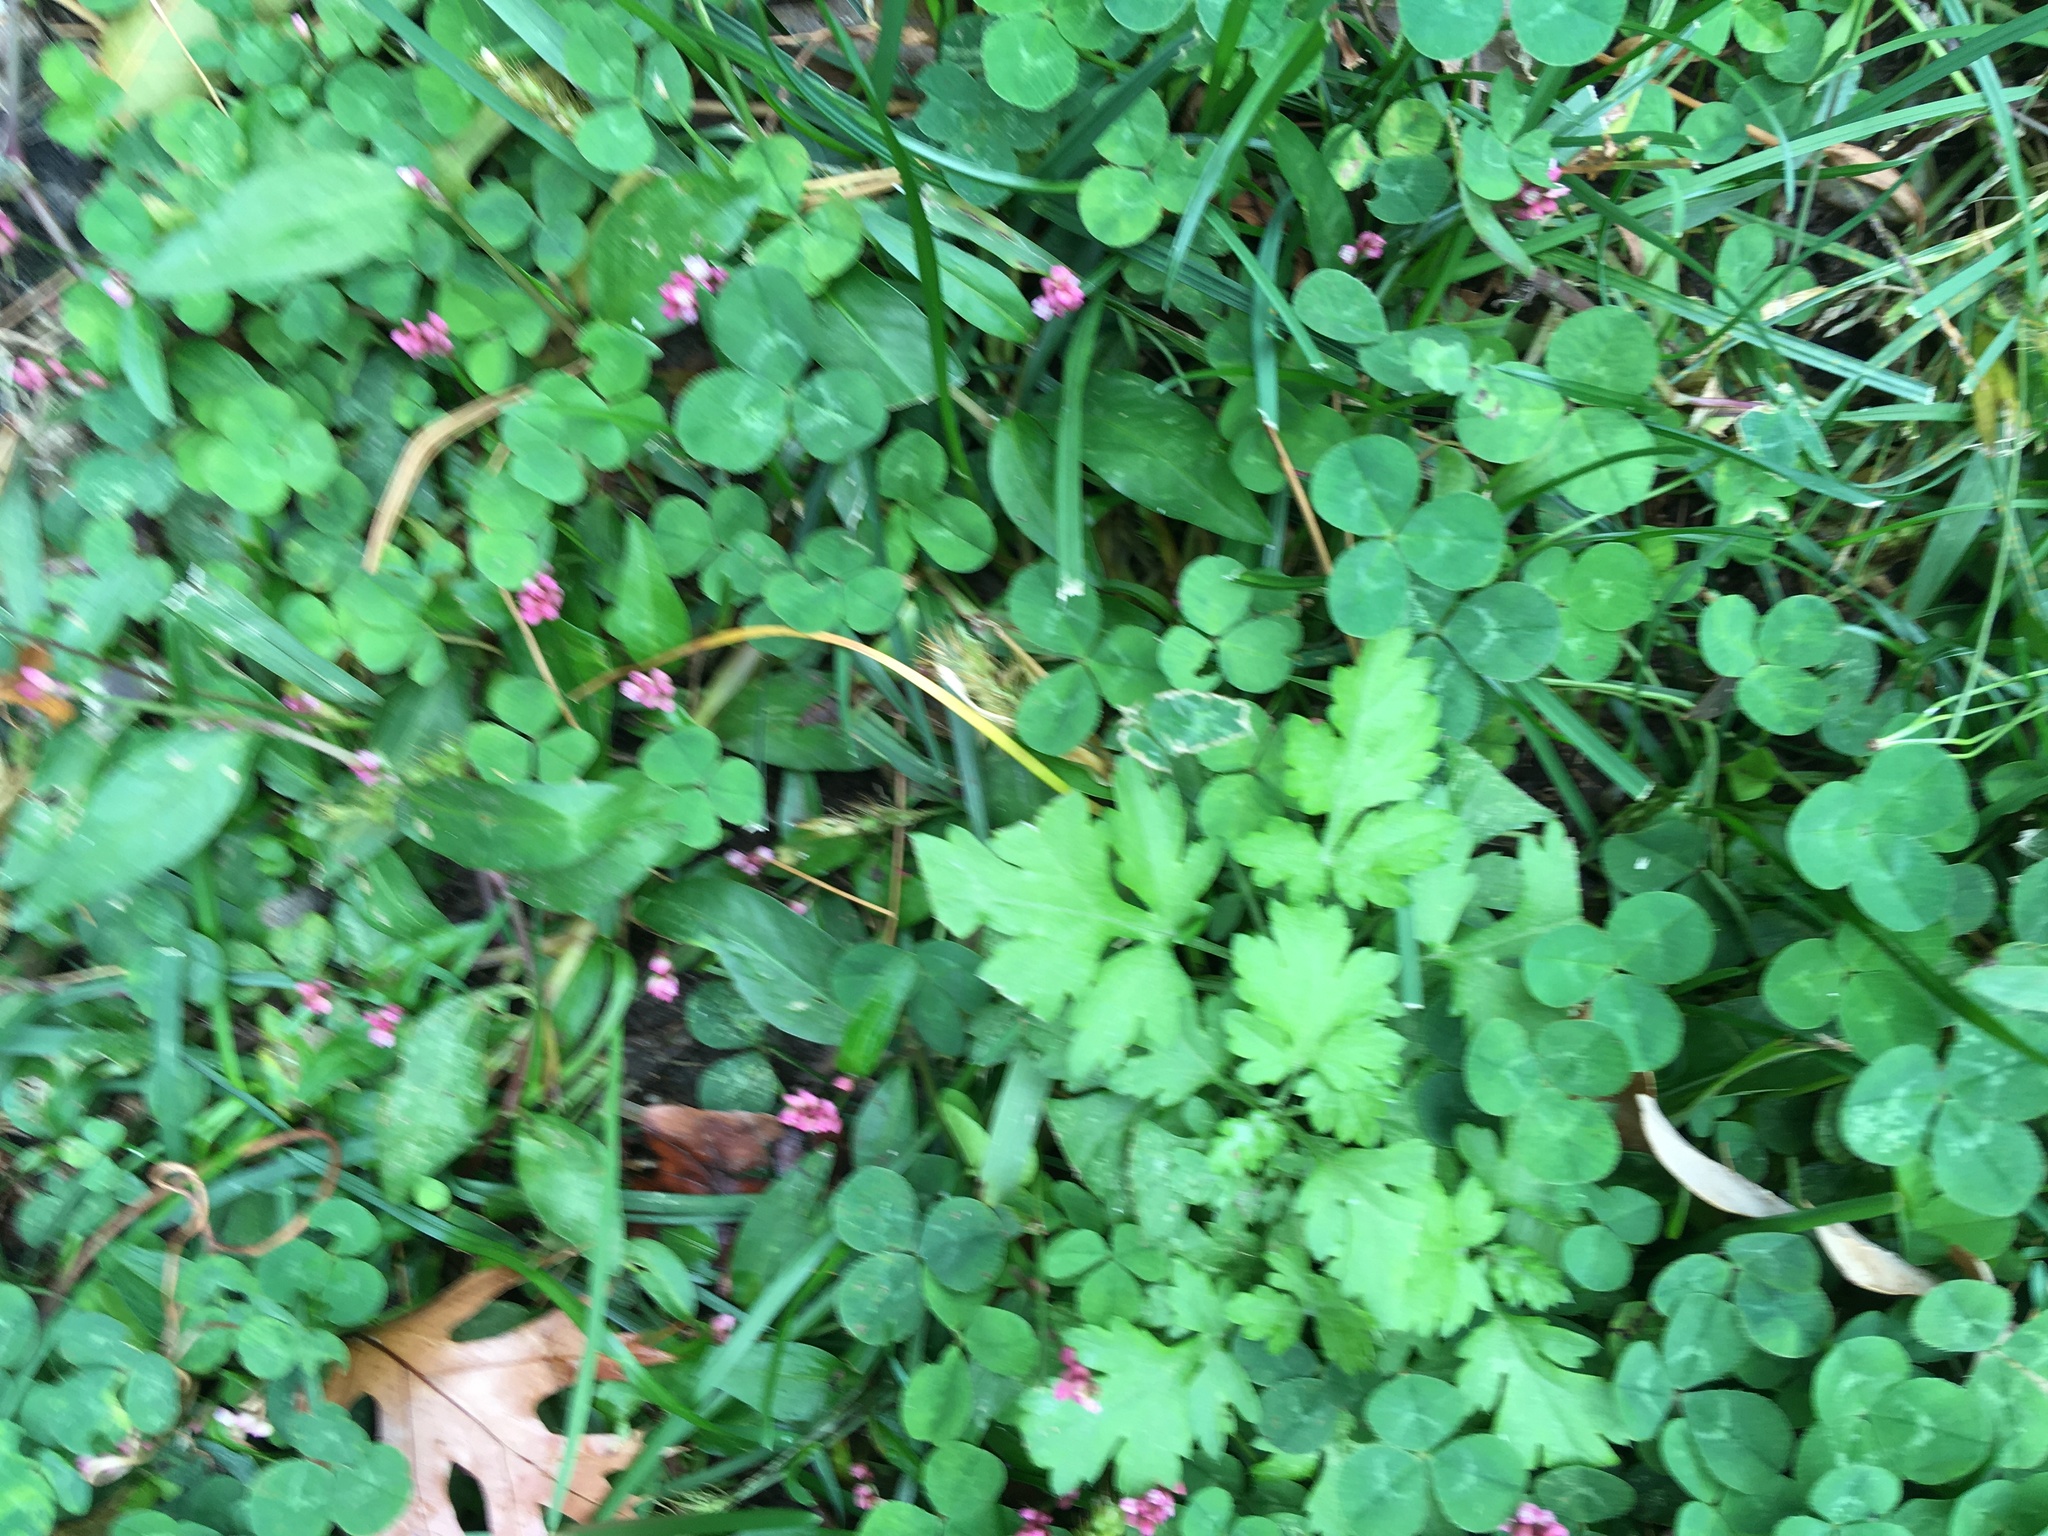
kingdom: Plantae
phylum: Tracheophyta
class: Magnoliopsida
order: Asterales
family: Asteraceae
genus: Artemisia
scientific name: Artemisia vulgaris
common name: Mugwort
